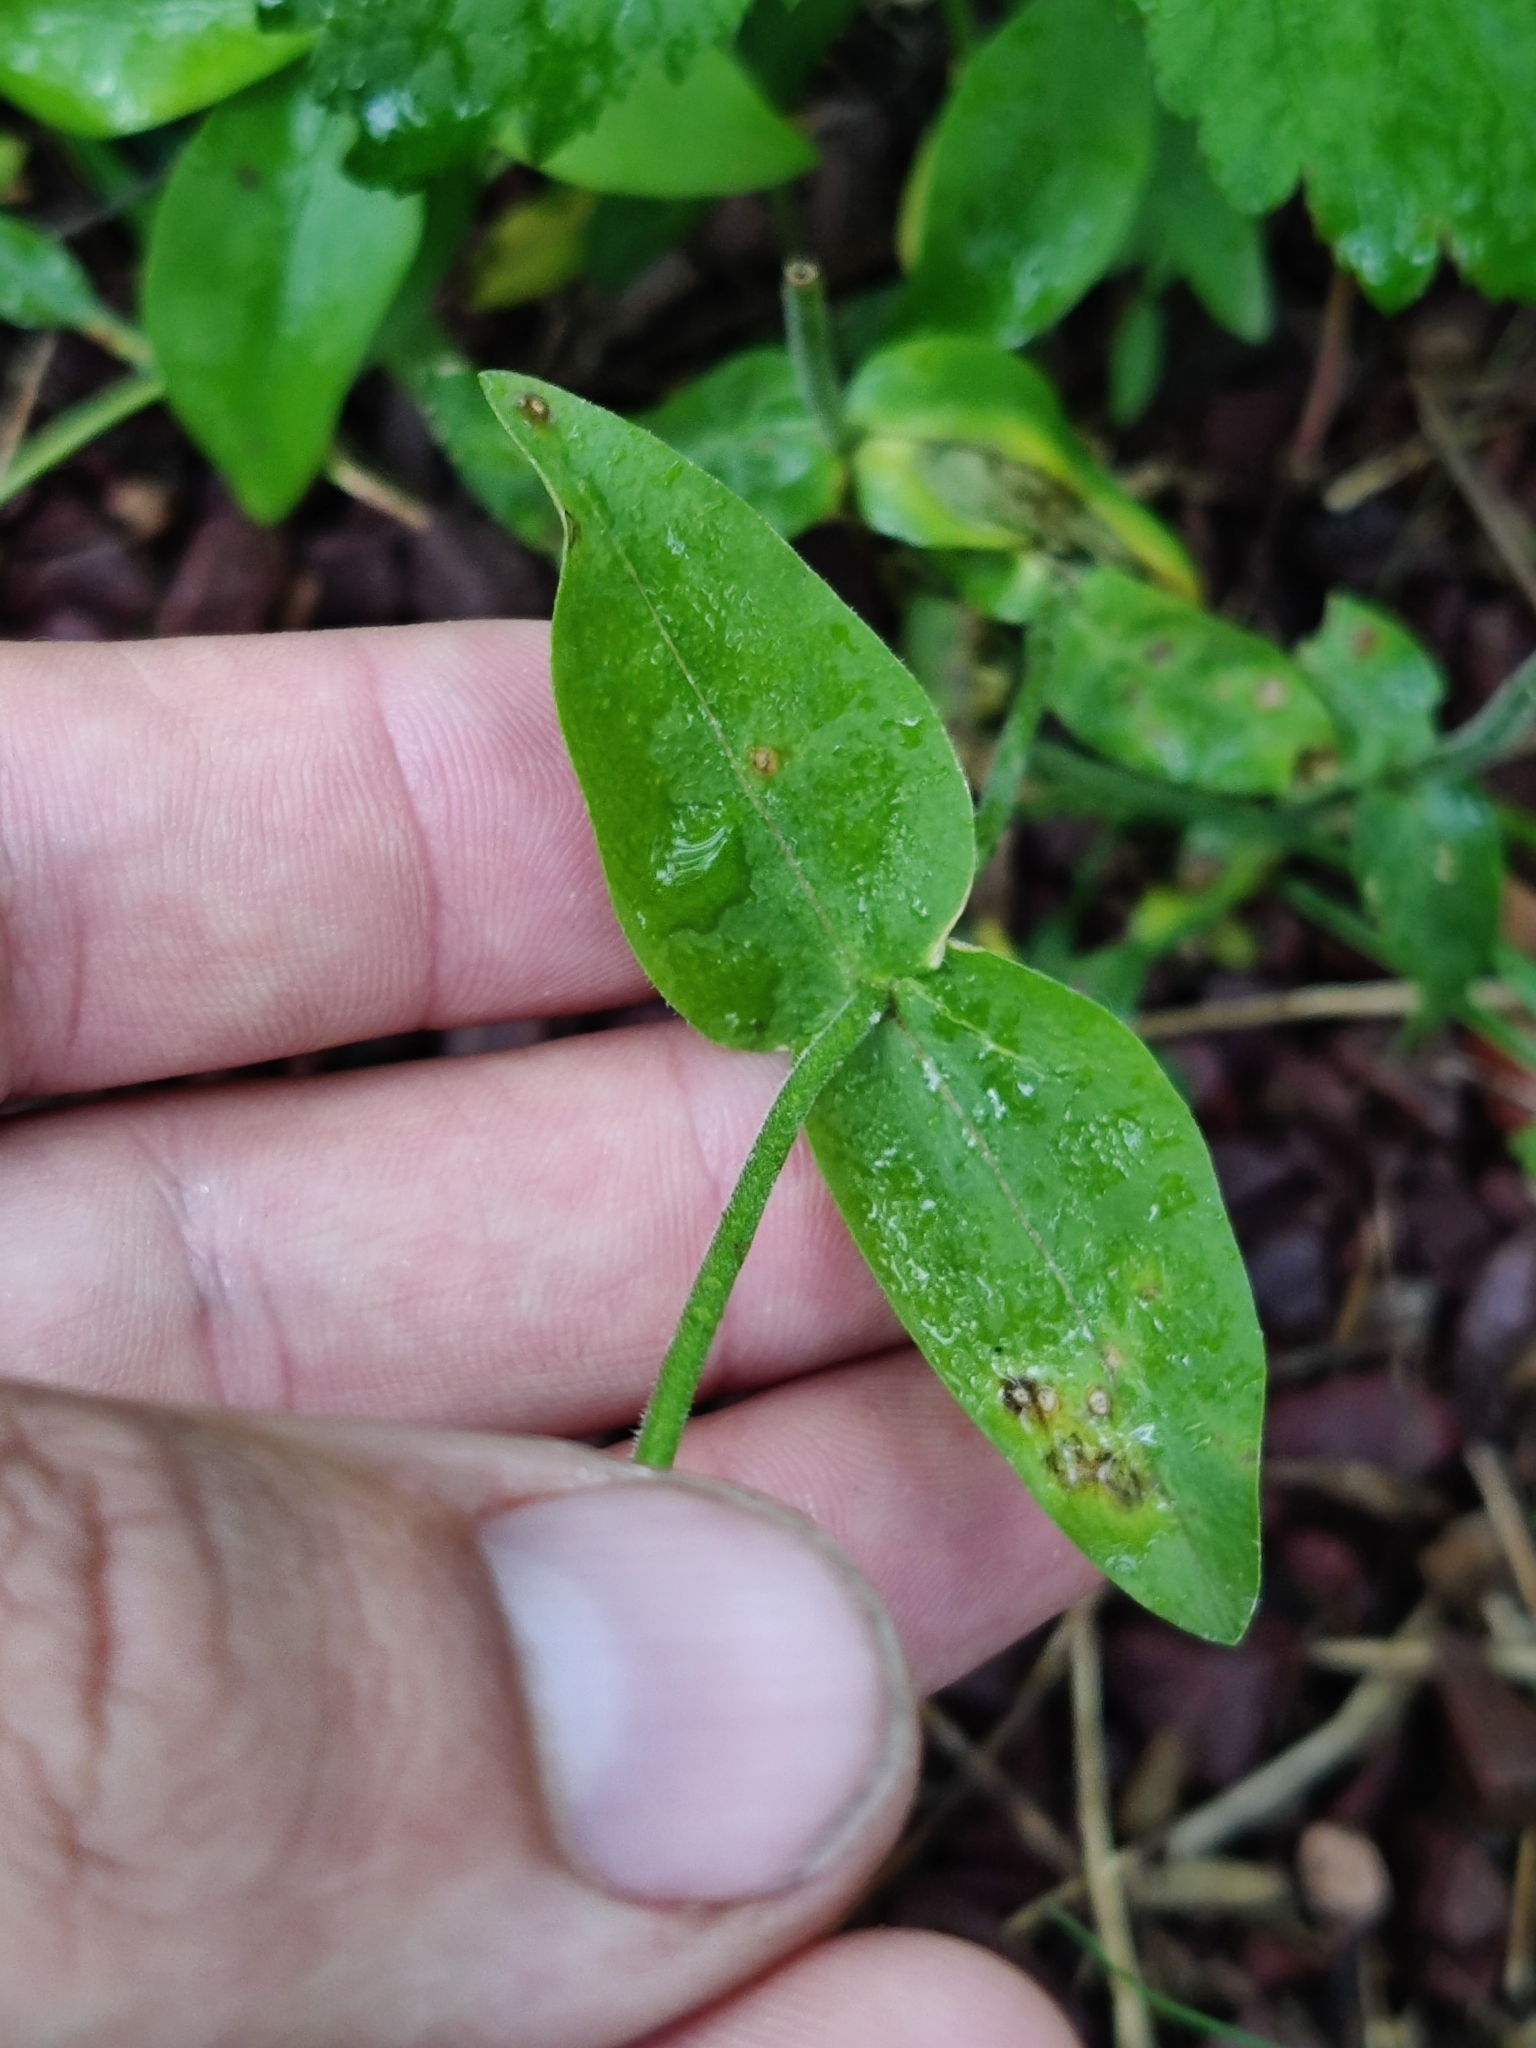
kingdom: Plantae
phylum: Tracheophyta
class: Magnoliopsida
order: Ericales
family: Polemoniaceae
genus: Phlox
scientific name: Phlox divaricata
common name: Blue phlox
